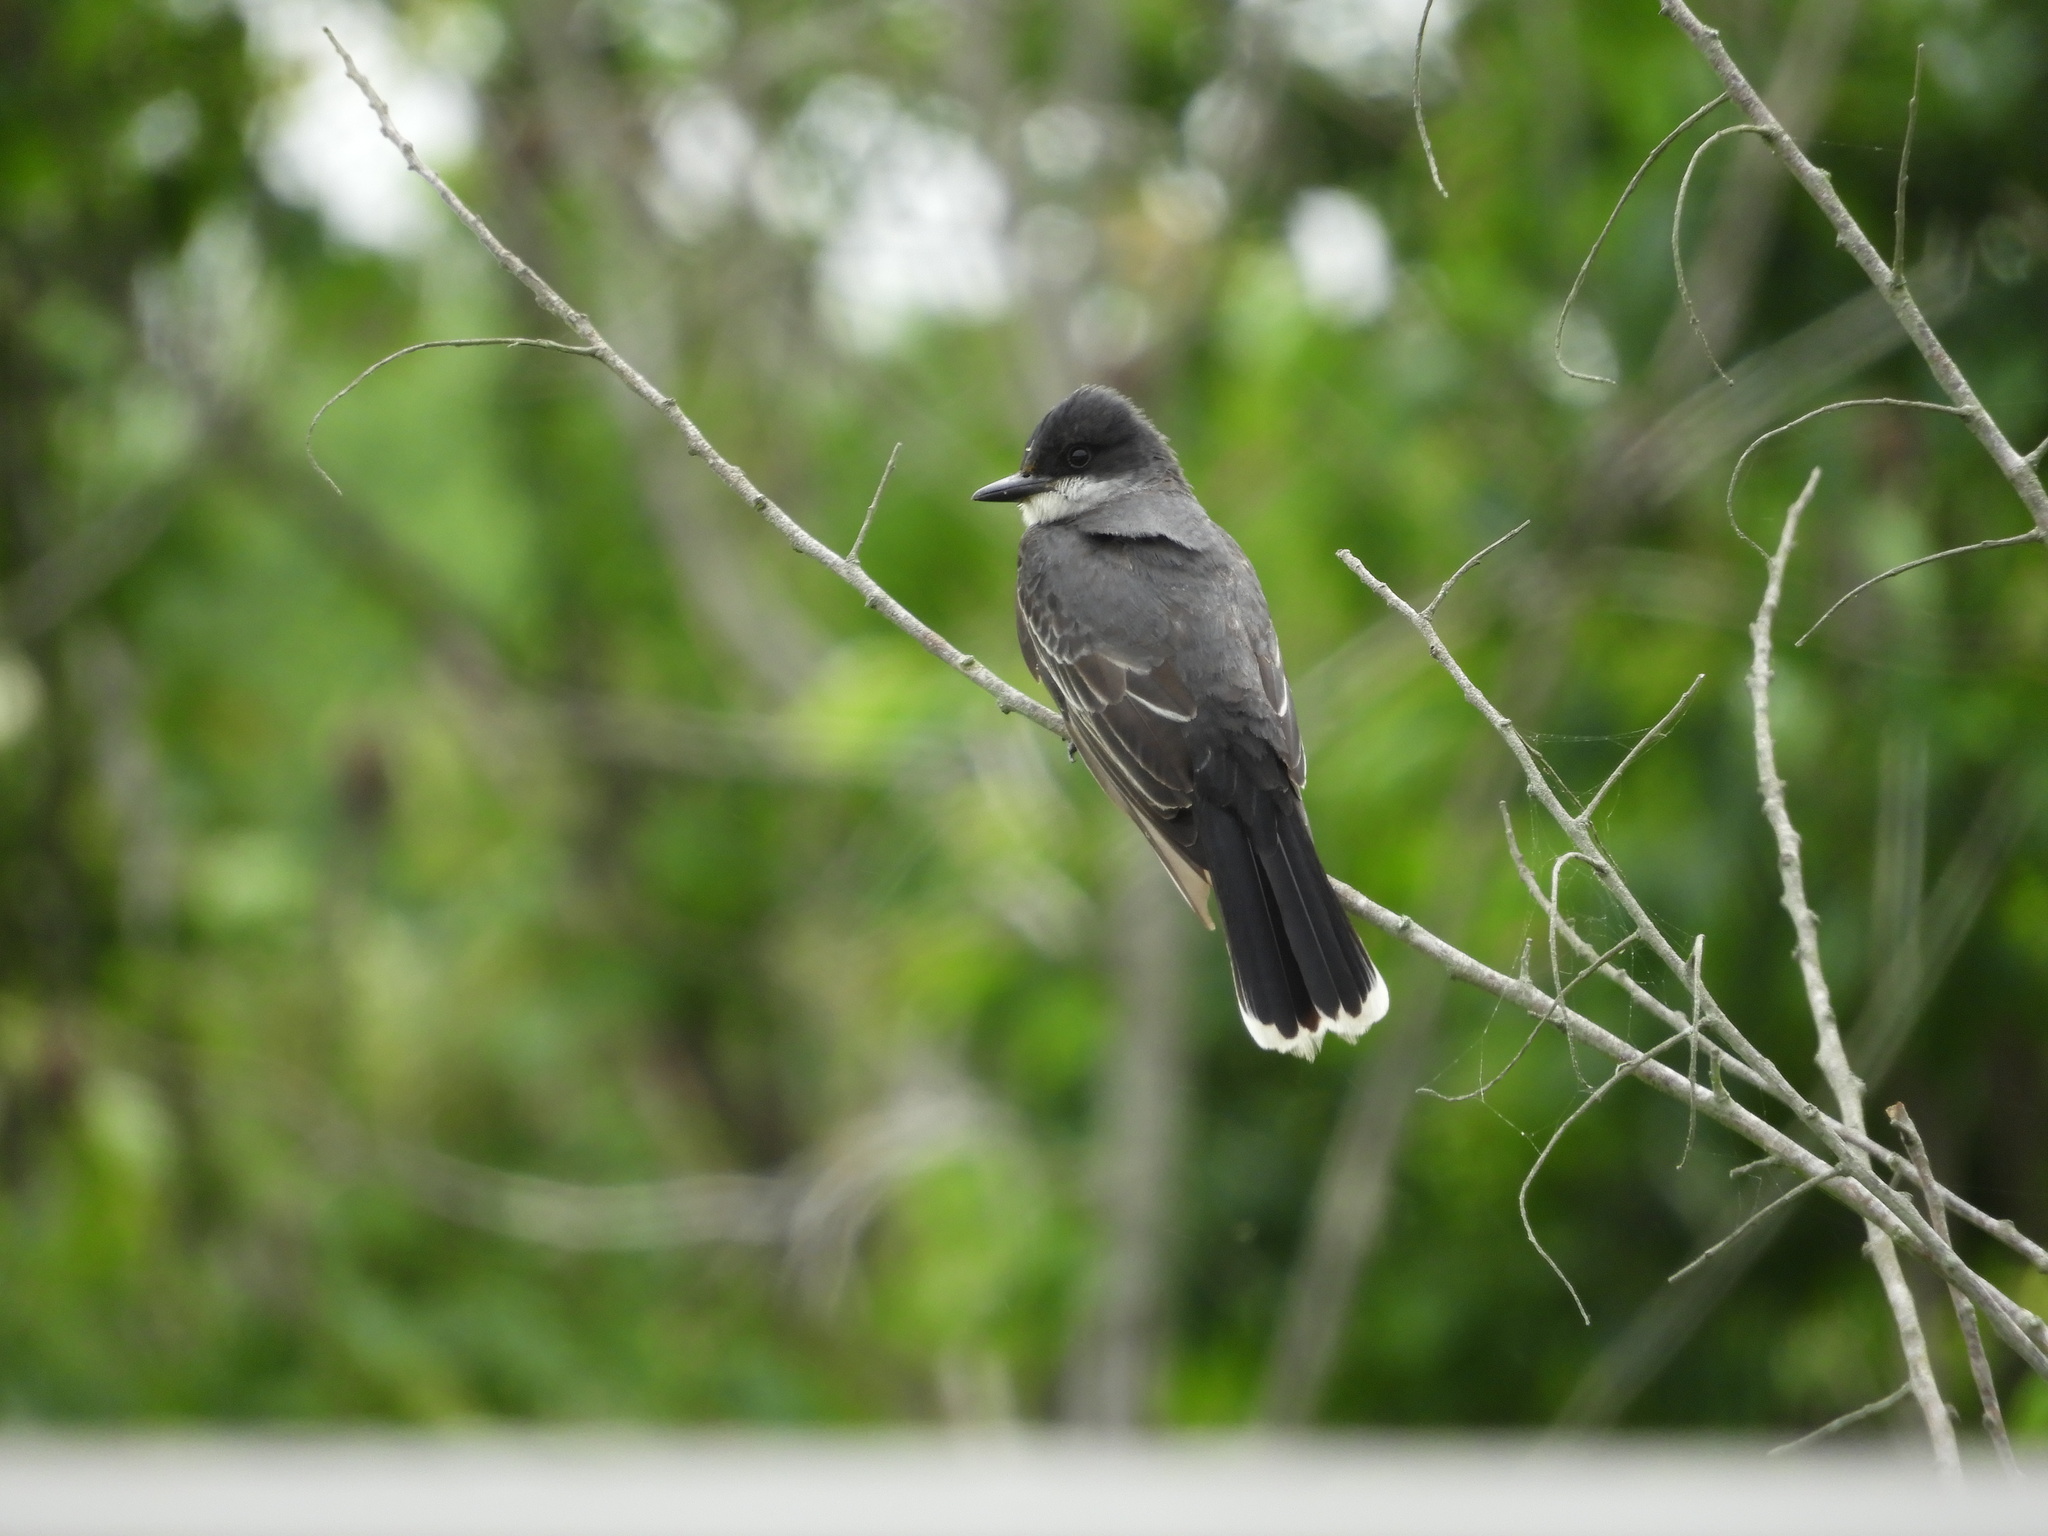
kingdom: Animalia
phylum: Chordata
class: Aves
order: Passeriformes
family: Tyrannidae
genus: Tyrannus
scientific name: Tyrannus tyrannus
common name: Eastern kingbird
